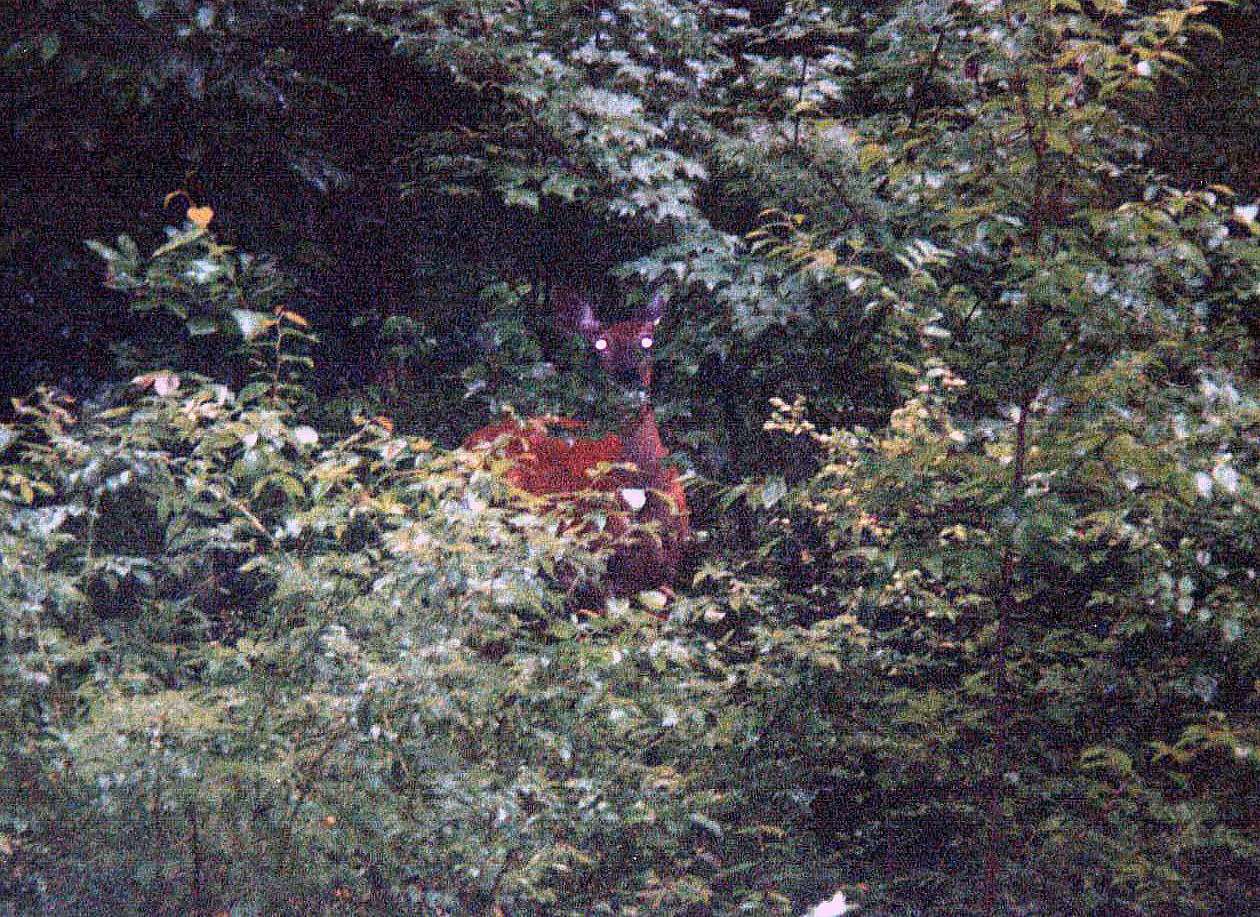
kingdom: Animalia
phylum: Chordata
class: Mammalia
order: Artiodactyla
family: Cervidae
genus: Odocoileus
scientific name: Odocoileus virginianus
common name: White-tailed deer
